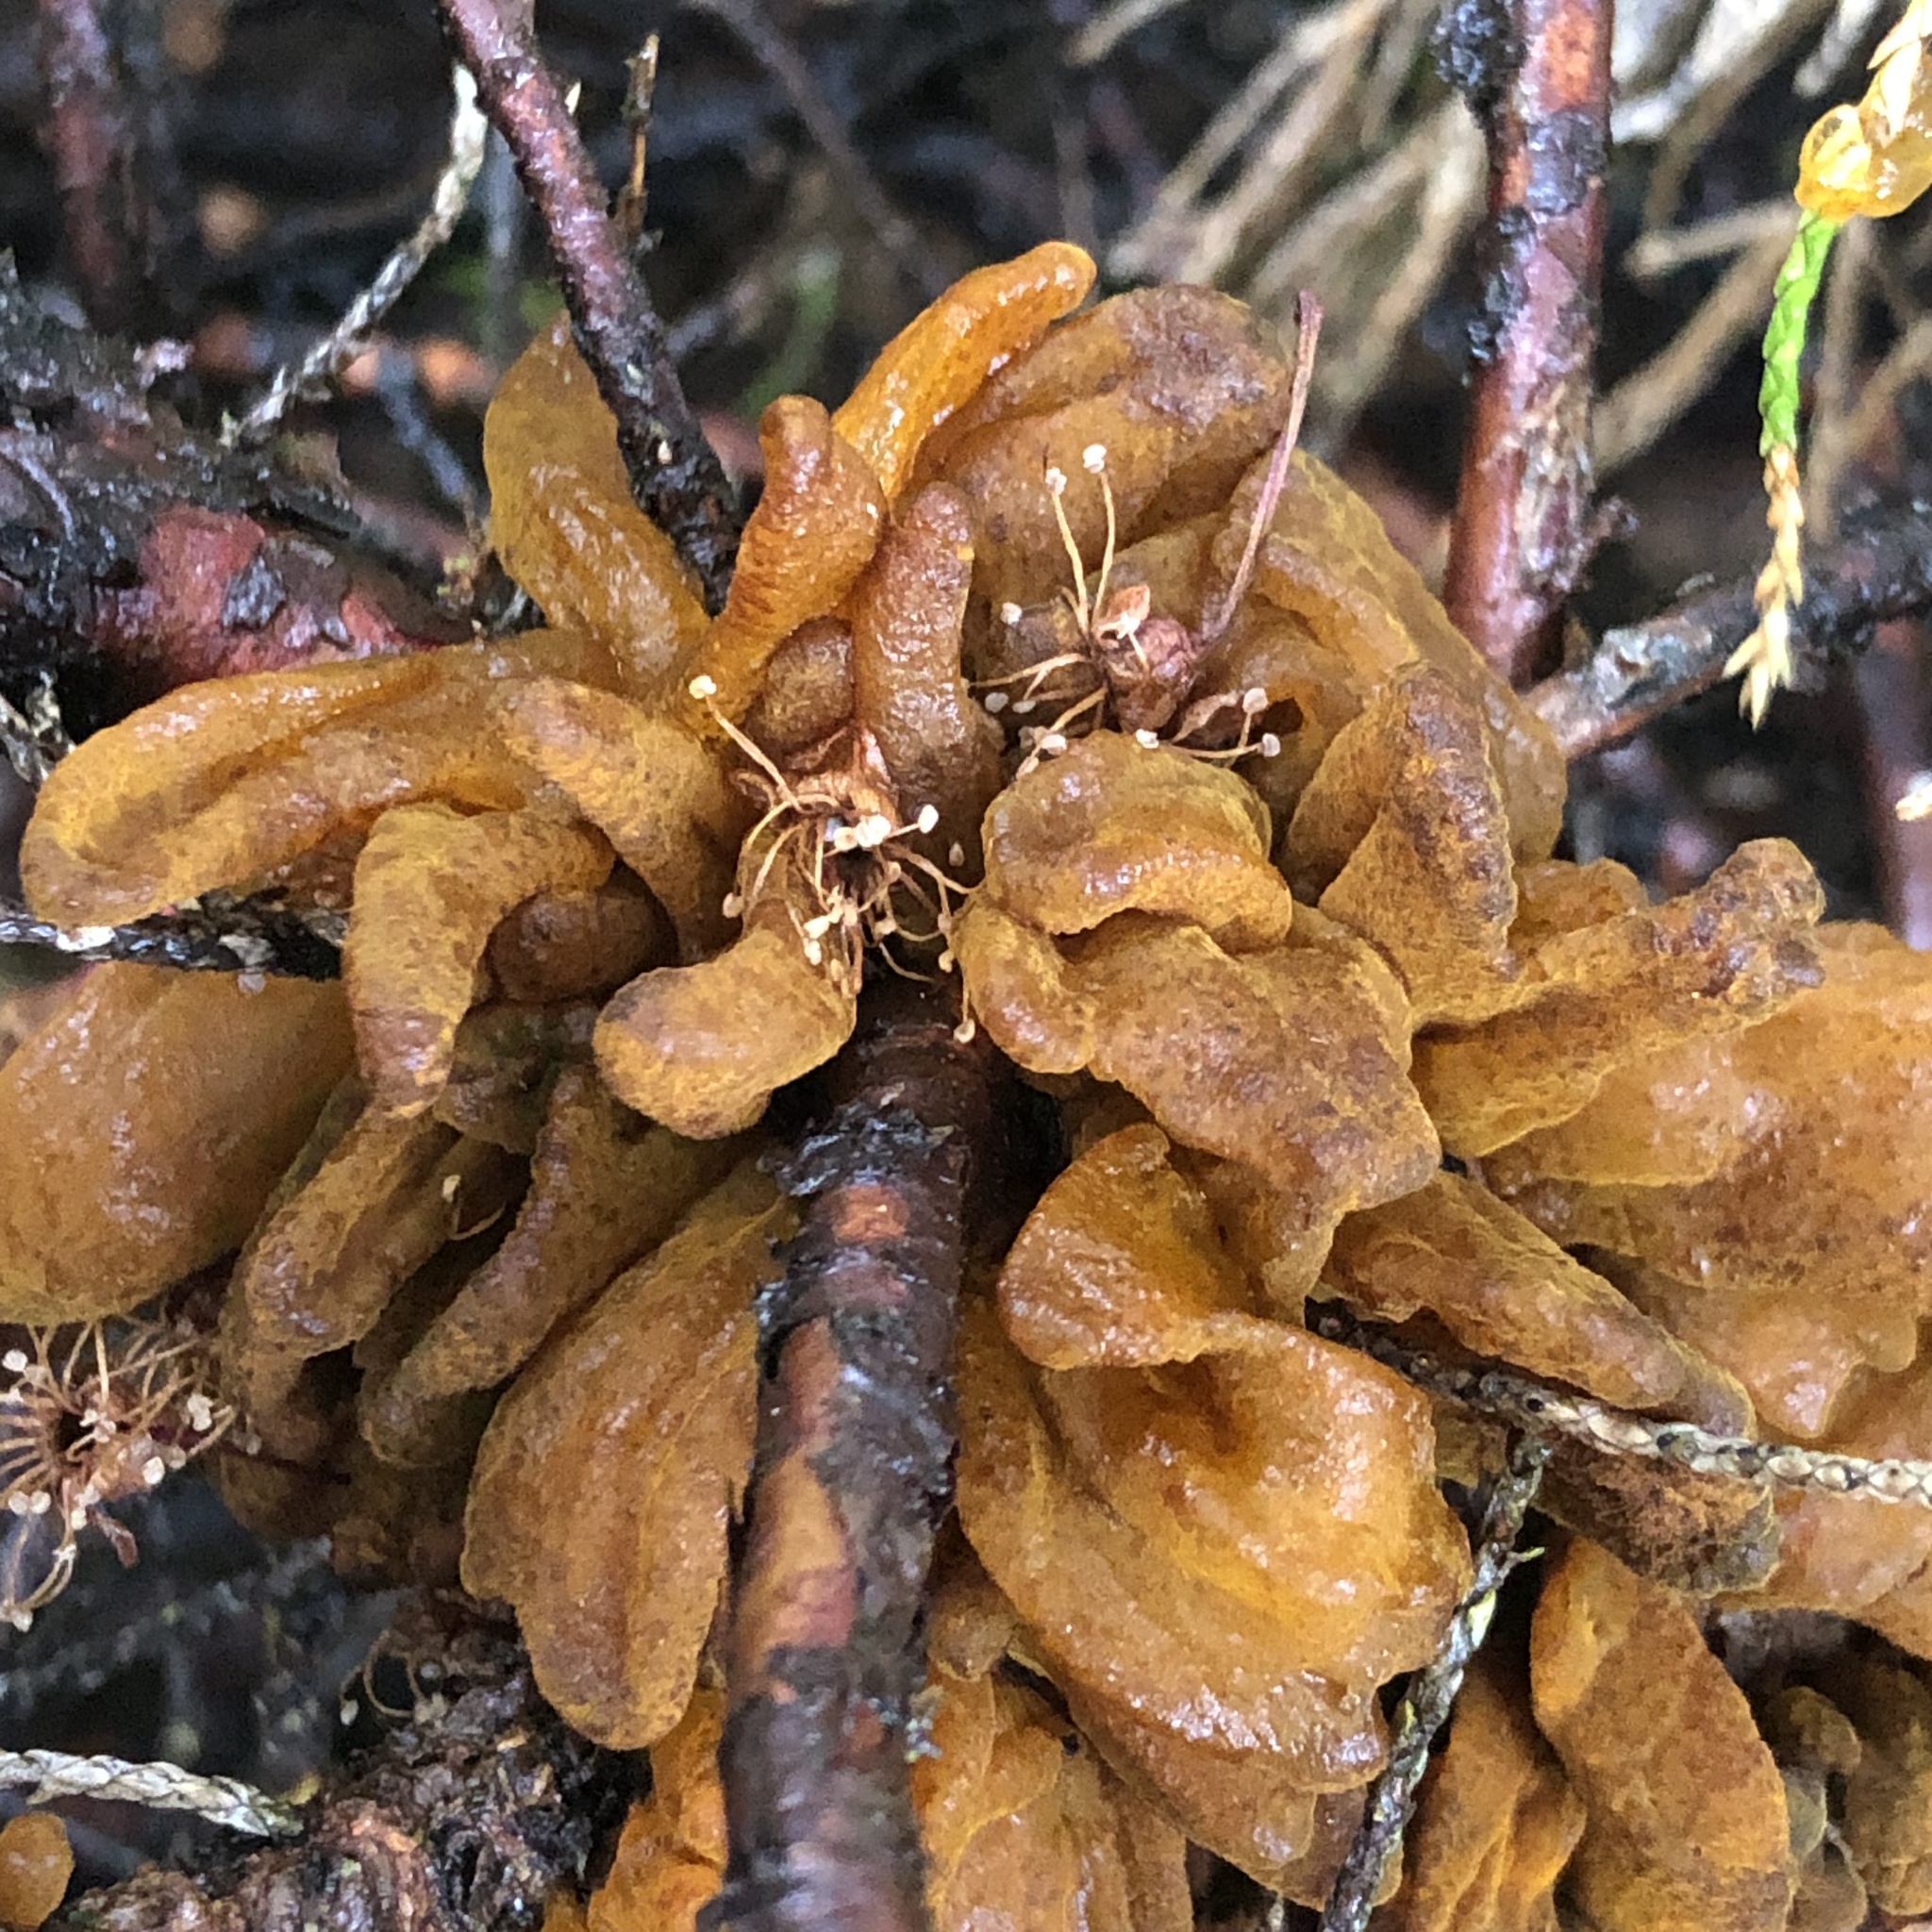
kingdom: Fungi
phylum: Basidiomycota
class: Pucciniomycetes
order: Pucciniales
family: Gymnosporangiaceae
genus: Gymnosporangium
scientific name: Gymnosporangium sabinae
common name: Pear trellis rust fungus
